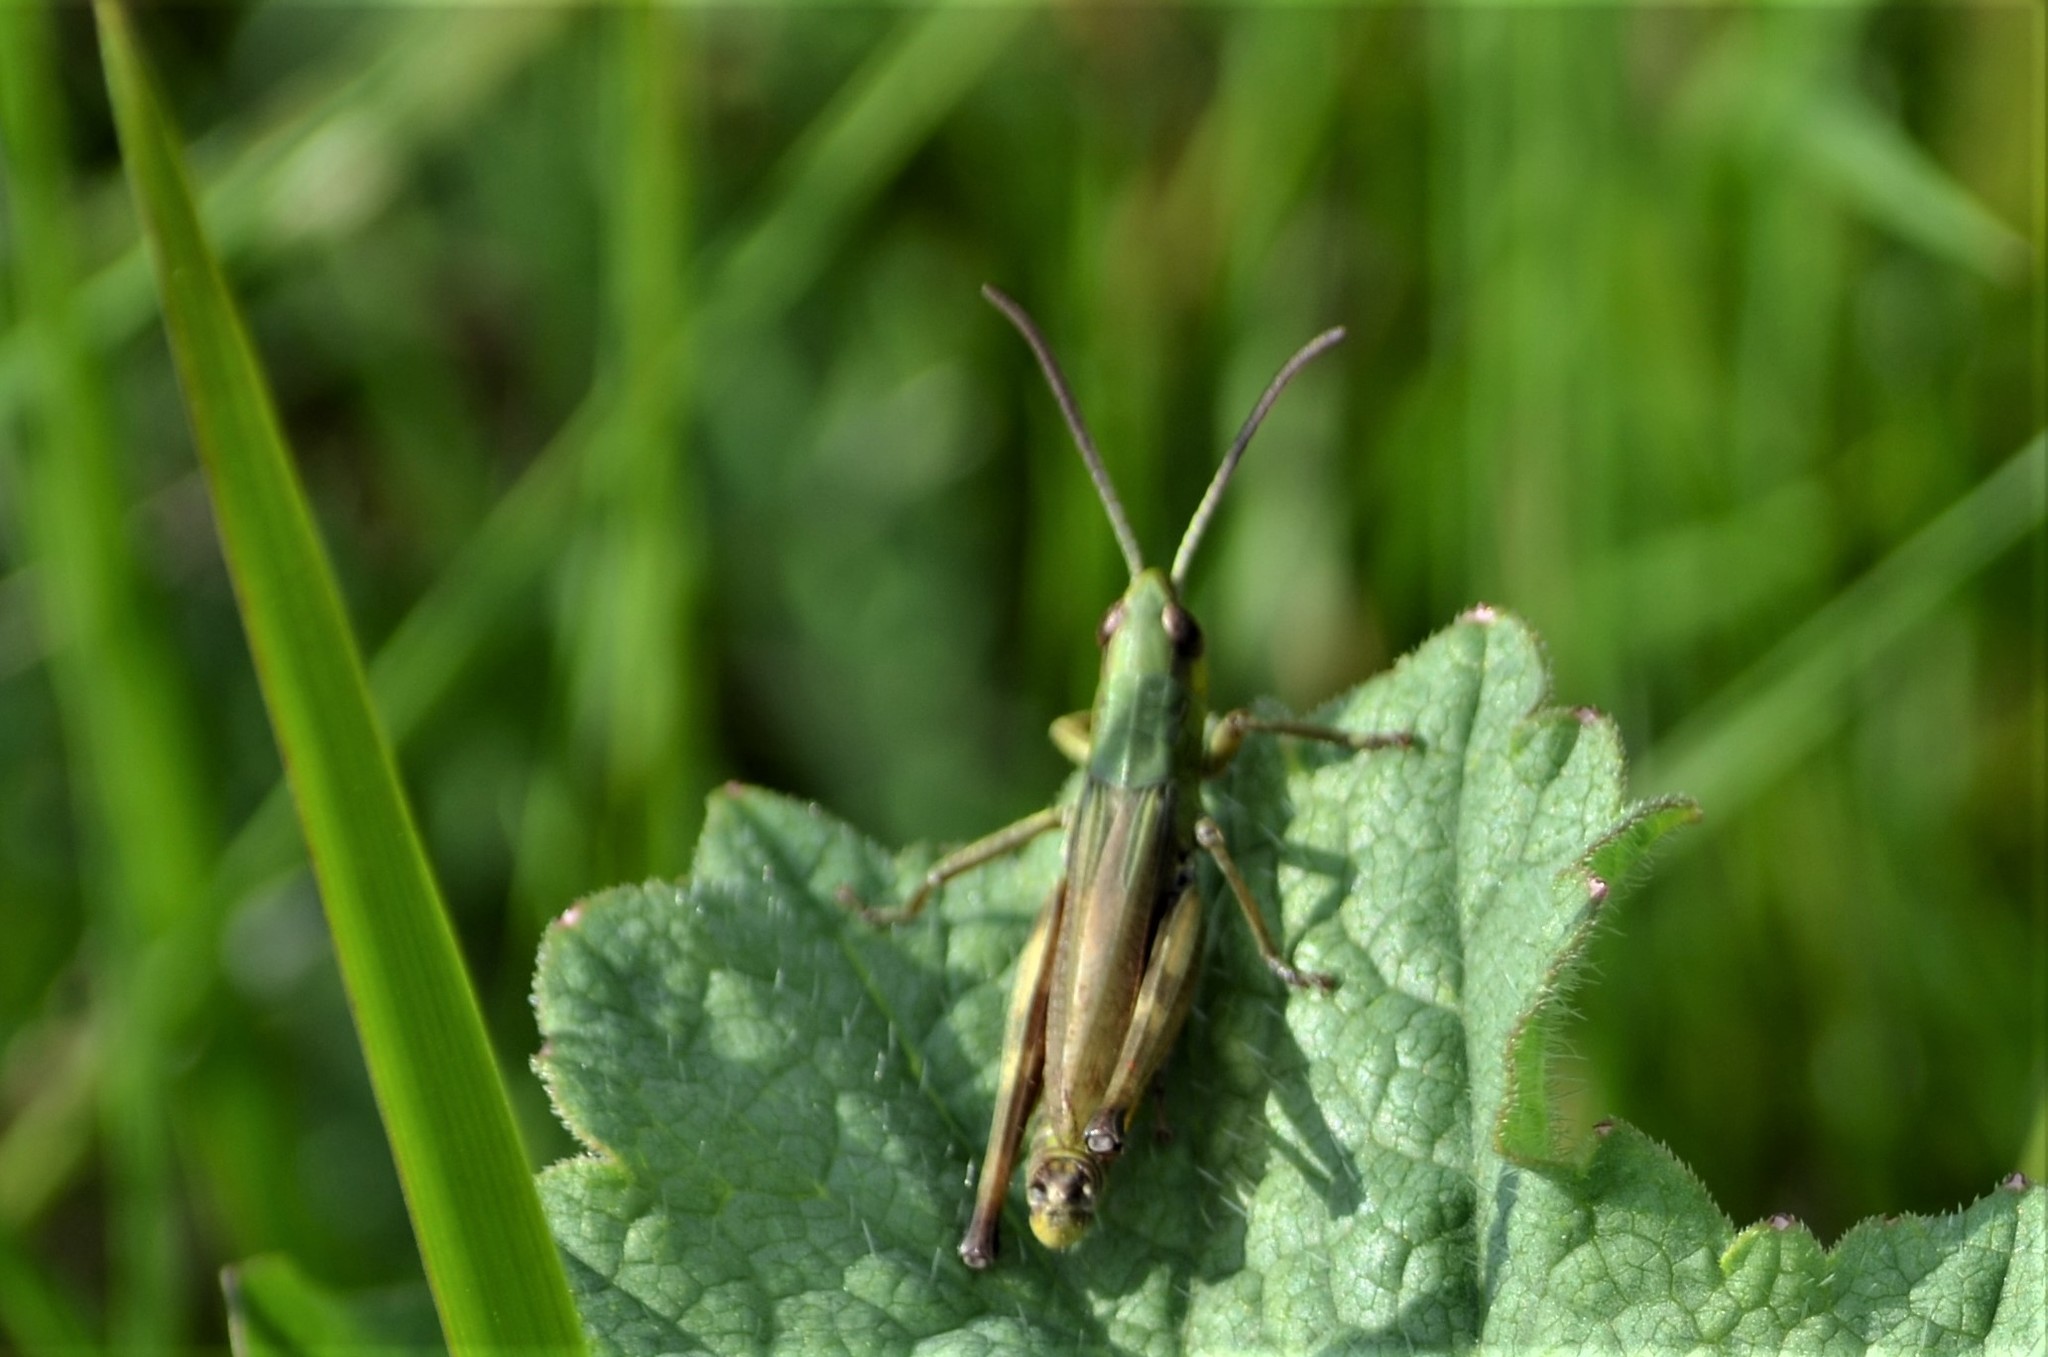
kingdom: Animalia
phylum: Arthropoda
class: Insecta
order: Orthoptera
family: Acrididae
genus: Pseudochorthippus
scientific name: Pseudochorthippus parallelus
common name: Meadow grasshopper
